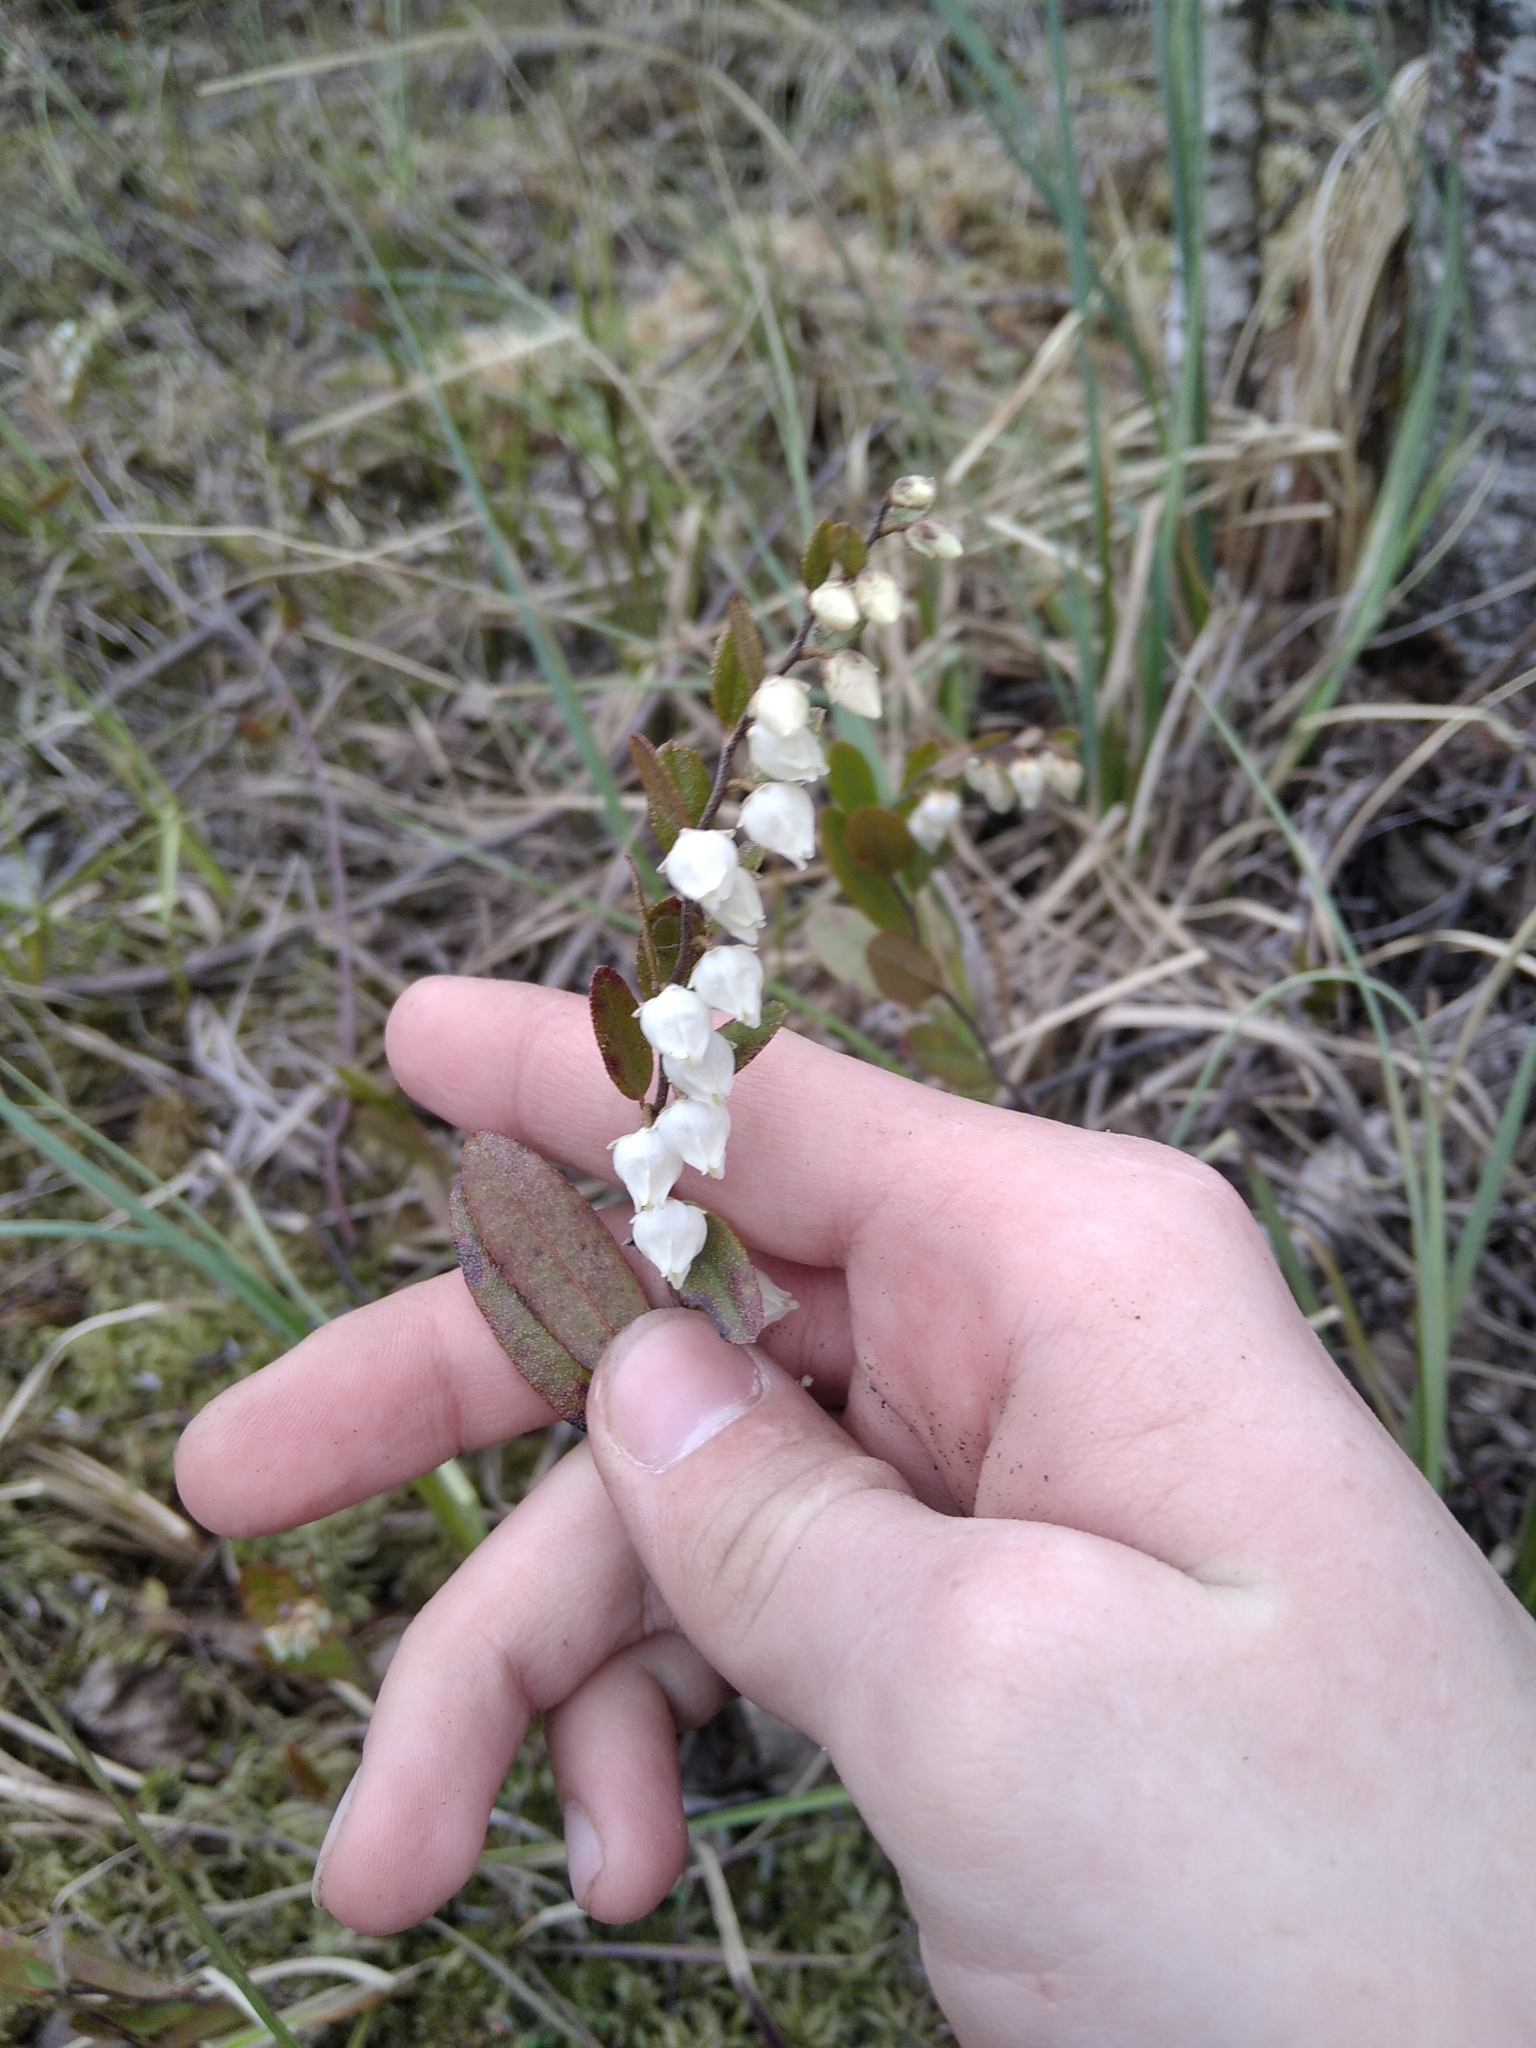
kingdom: Plantae
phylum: Tracheophyta
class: Magnoliopsida
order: Ericales
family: Ericaceae
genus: Chamaedaphne
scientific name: Chamaedaphne calyculata
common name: Leatherleaf
